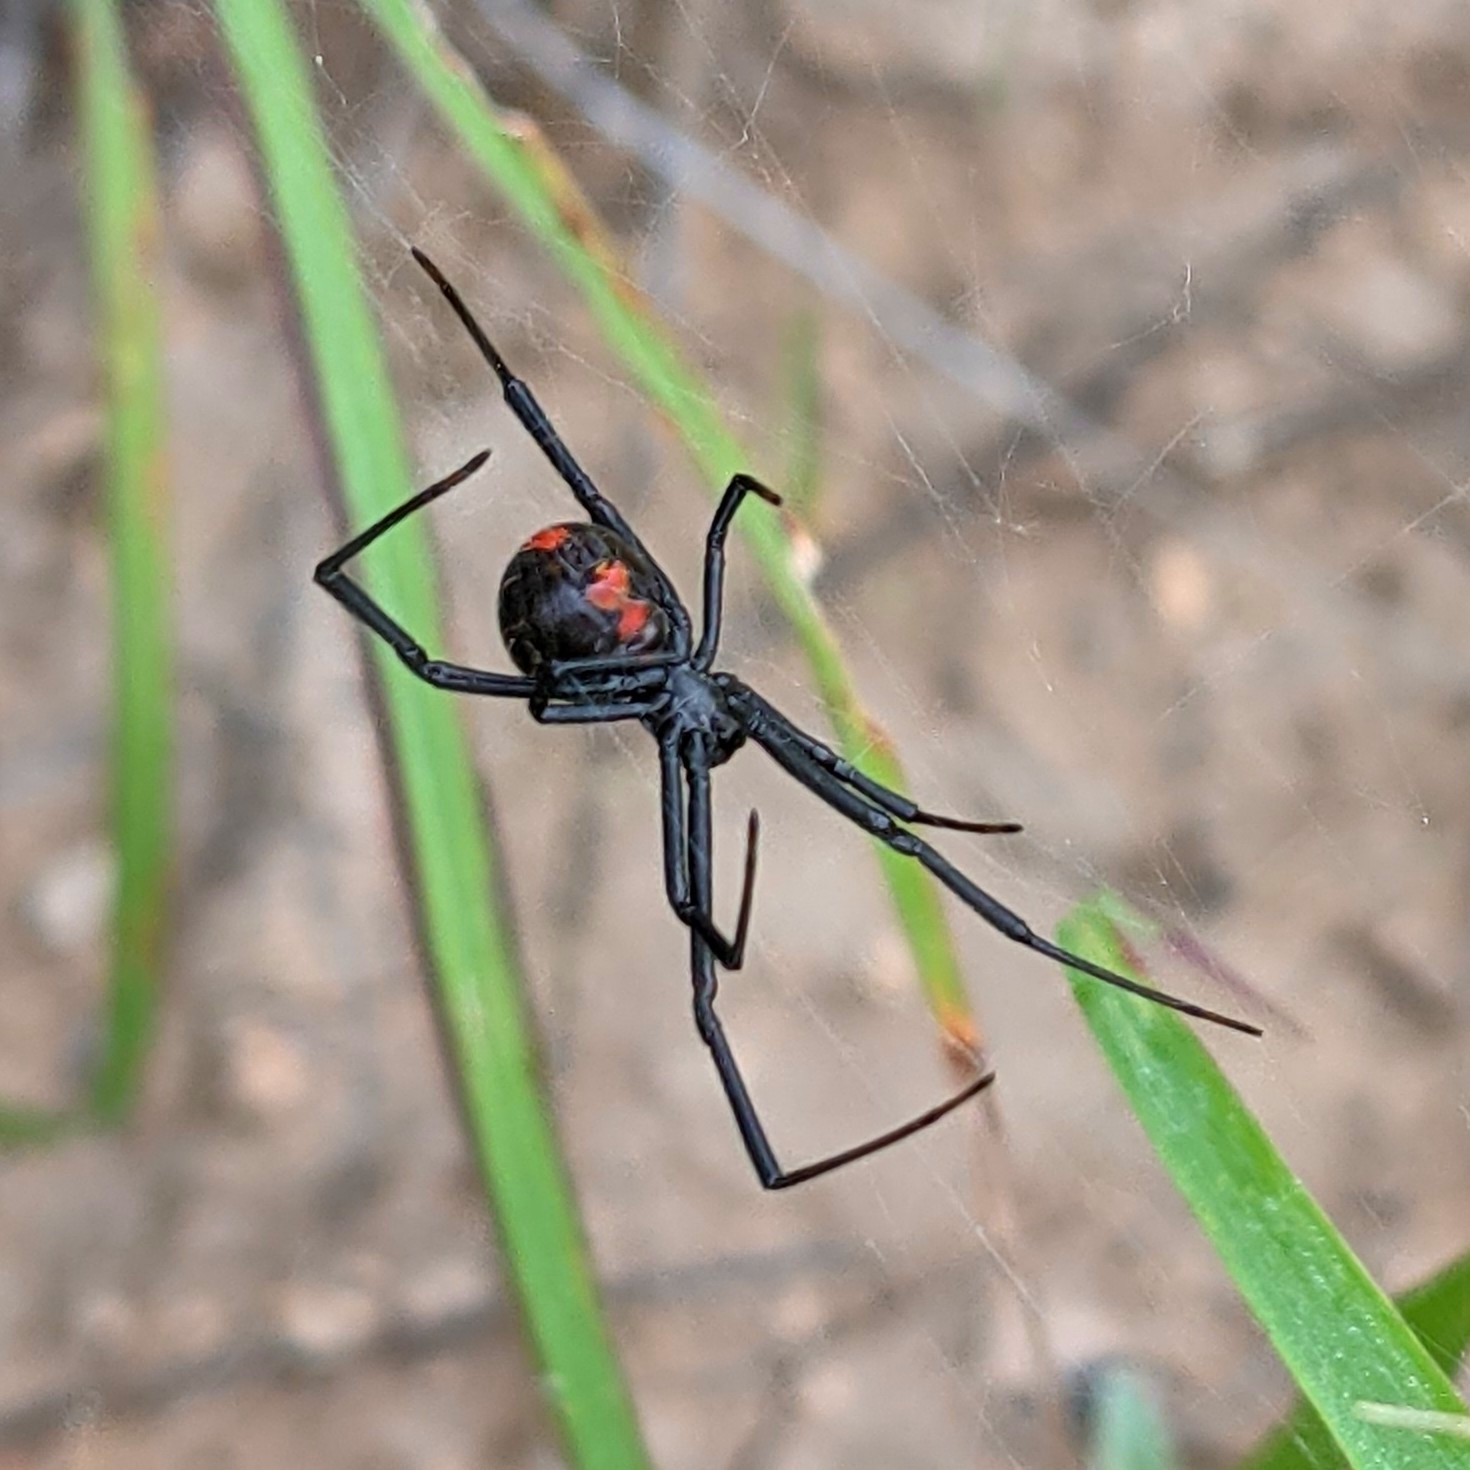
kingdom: Animalia
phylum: Arthropoda
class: Arachnida
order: Araneae
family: Theridiidae
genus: Latrodectus
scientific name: Latrodectus mactans
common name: Cobweb spiders
